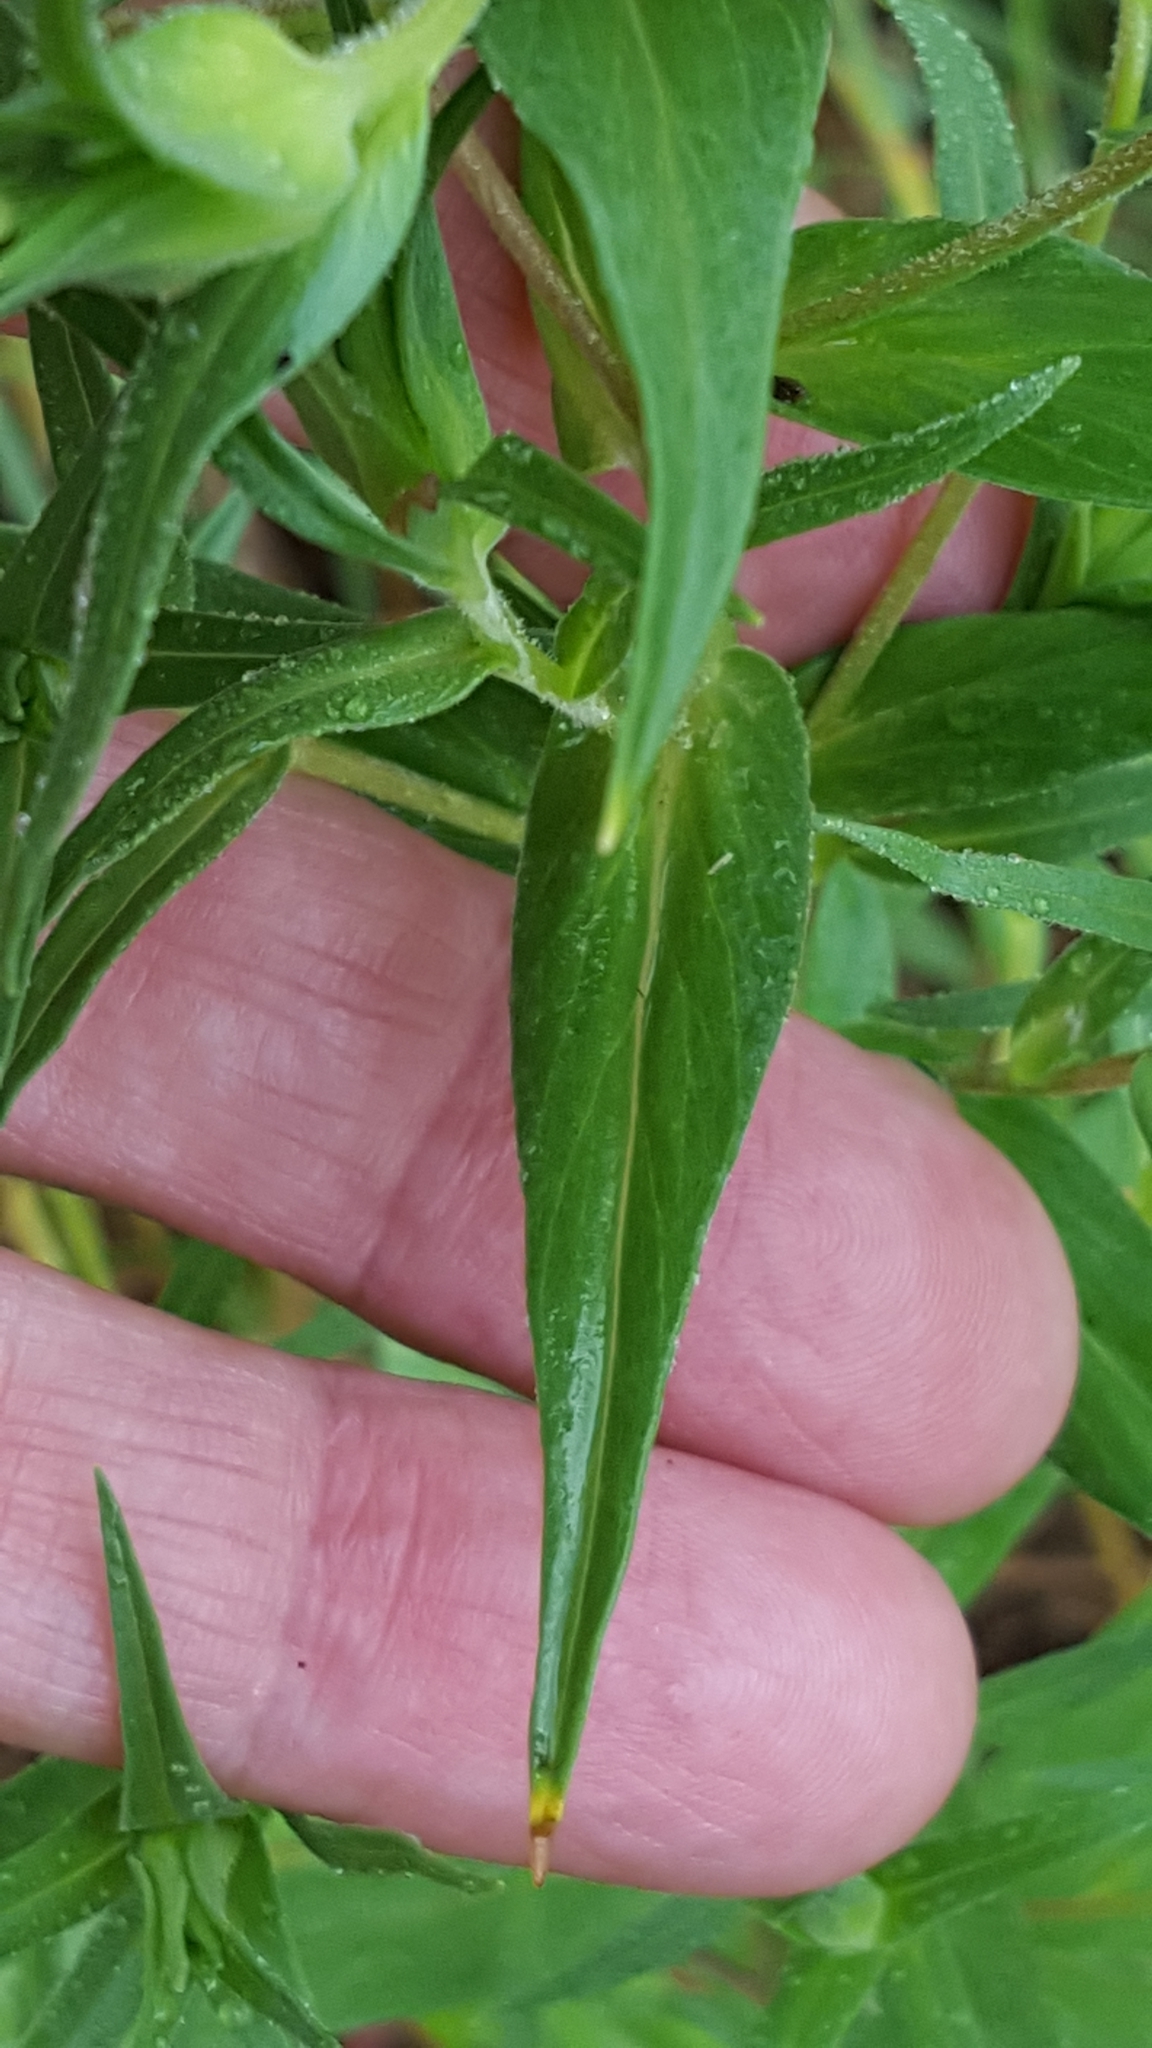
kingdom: Plantae
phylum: Tracheophyta
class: Magnoliopsida
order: Ericales
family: Polemoniaceae
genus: Collomia
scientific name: Collomia linearis
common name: Tiny trumpet
